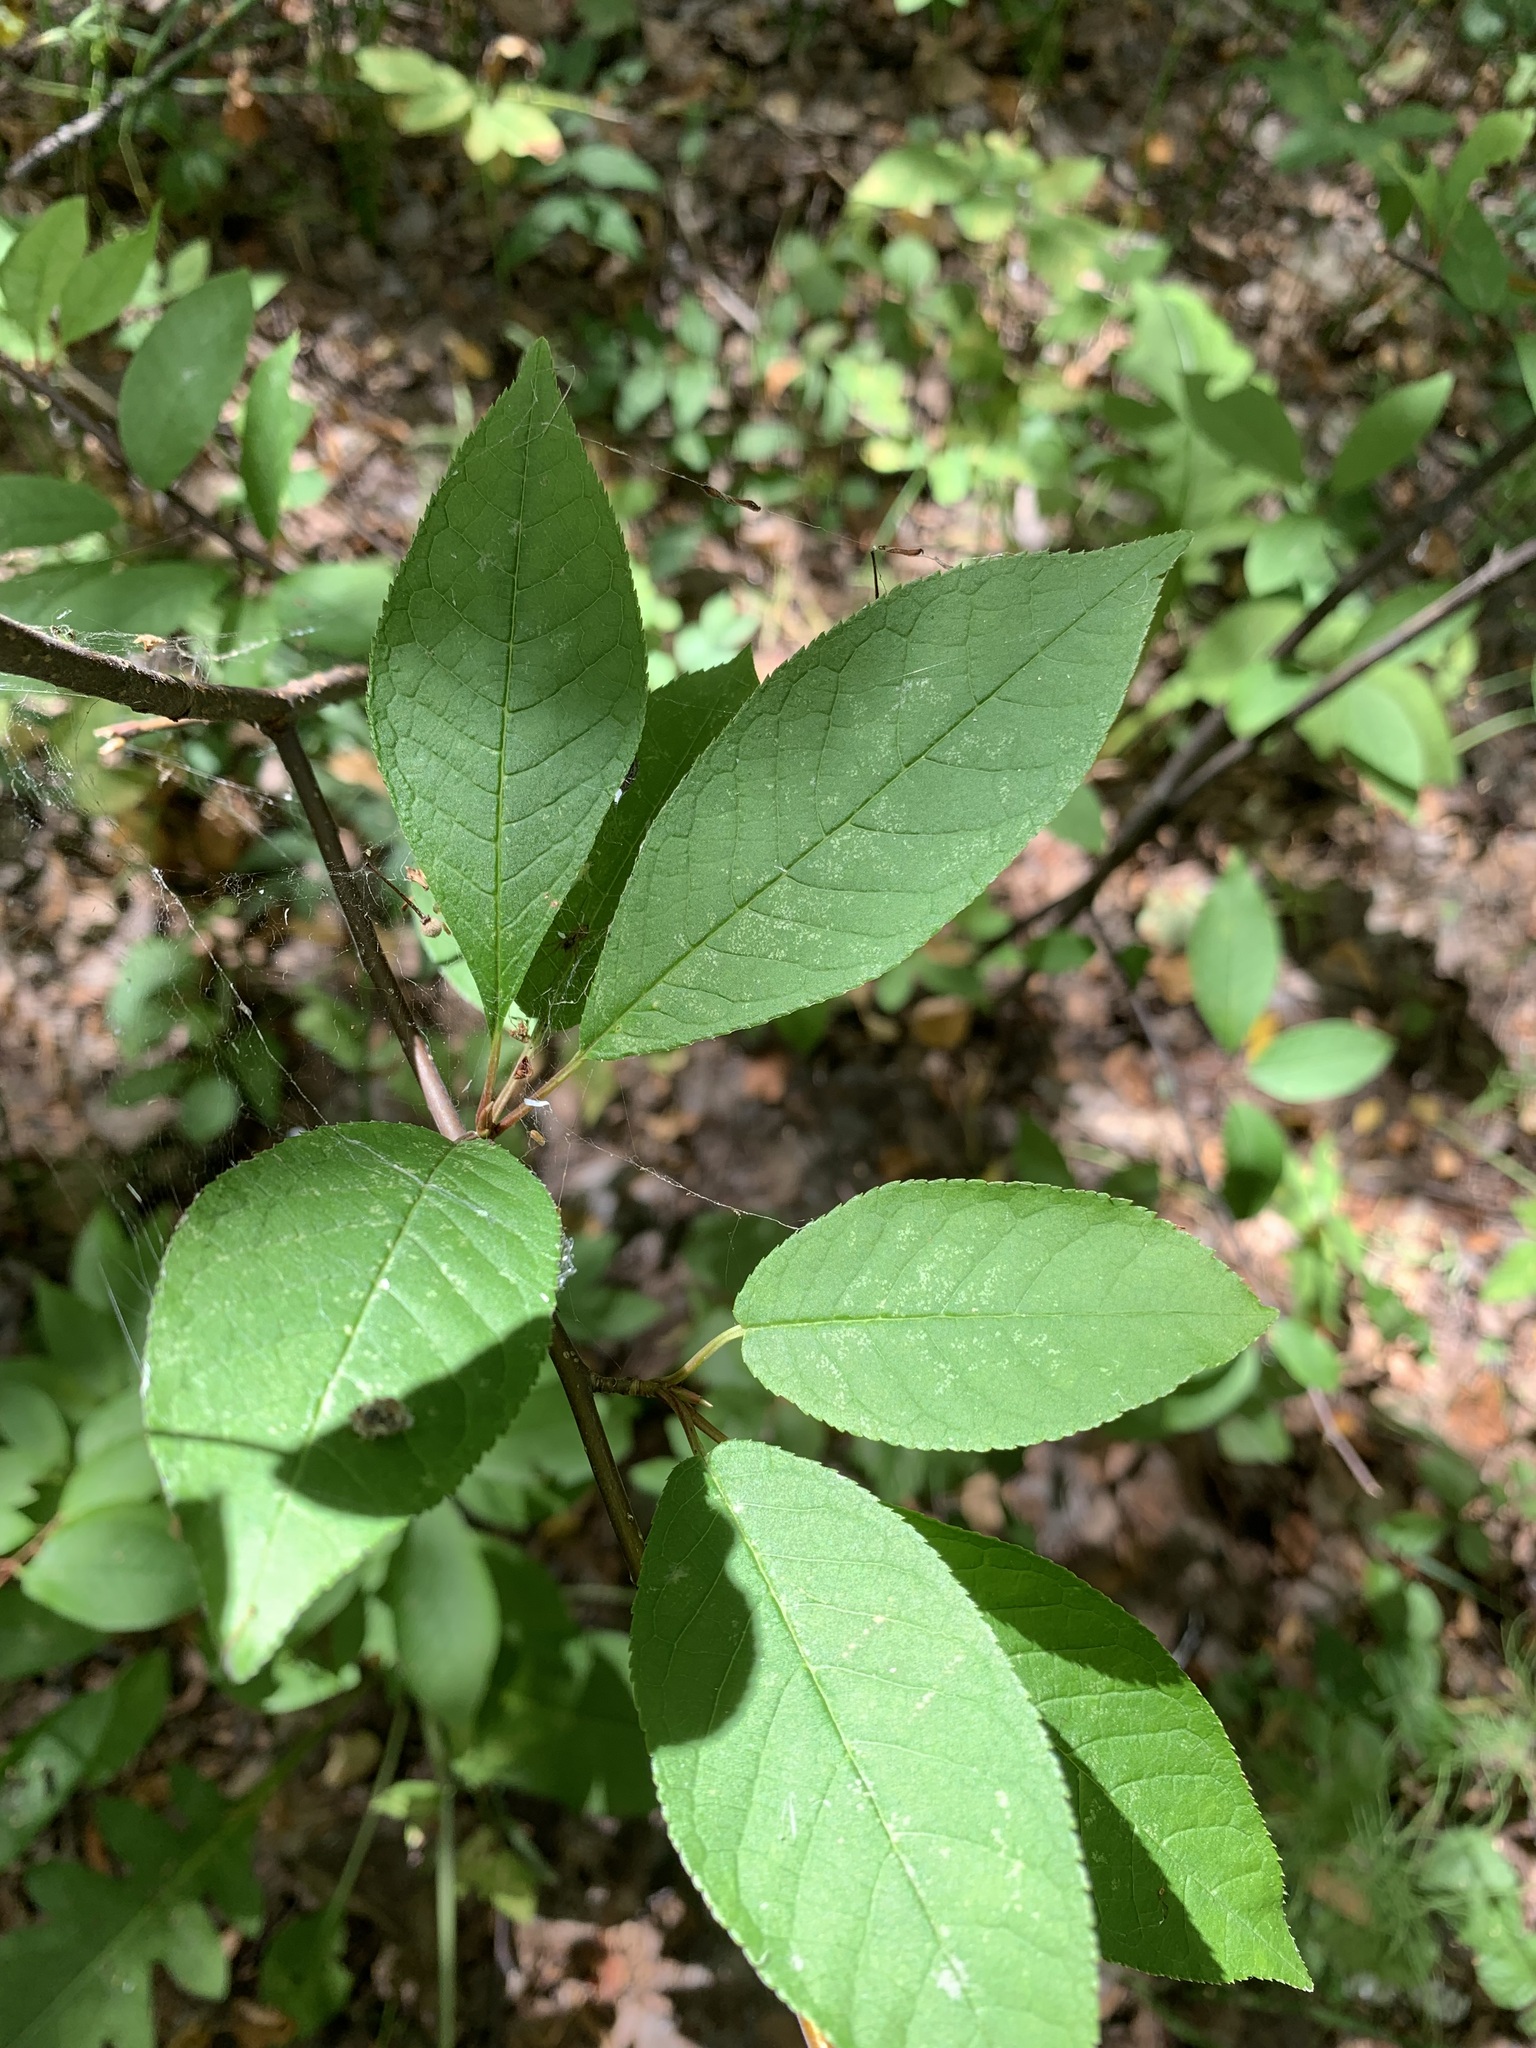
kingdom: Plantae
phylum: Tracheophyta
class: Magnoliopsida
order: Rosales
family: Rosaceae
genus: Prunus
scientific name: Prunus padus
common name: Bird cherry
